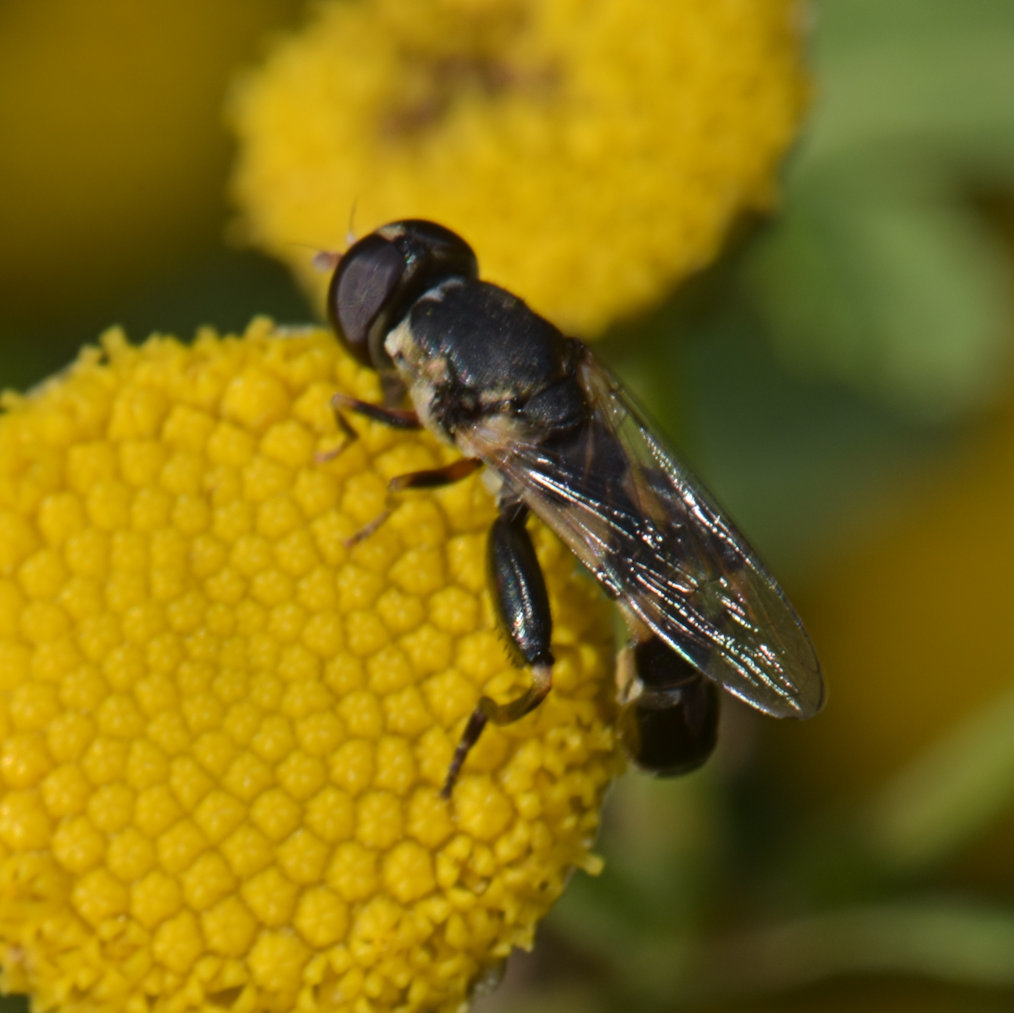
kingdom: Animalia
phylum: Arthropoda
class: Insecta
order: Diptera
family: Syrphidae
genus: Syritta
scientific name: Syritta pipiens
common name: Hover fly
